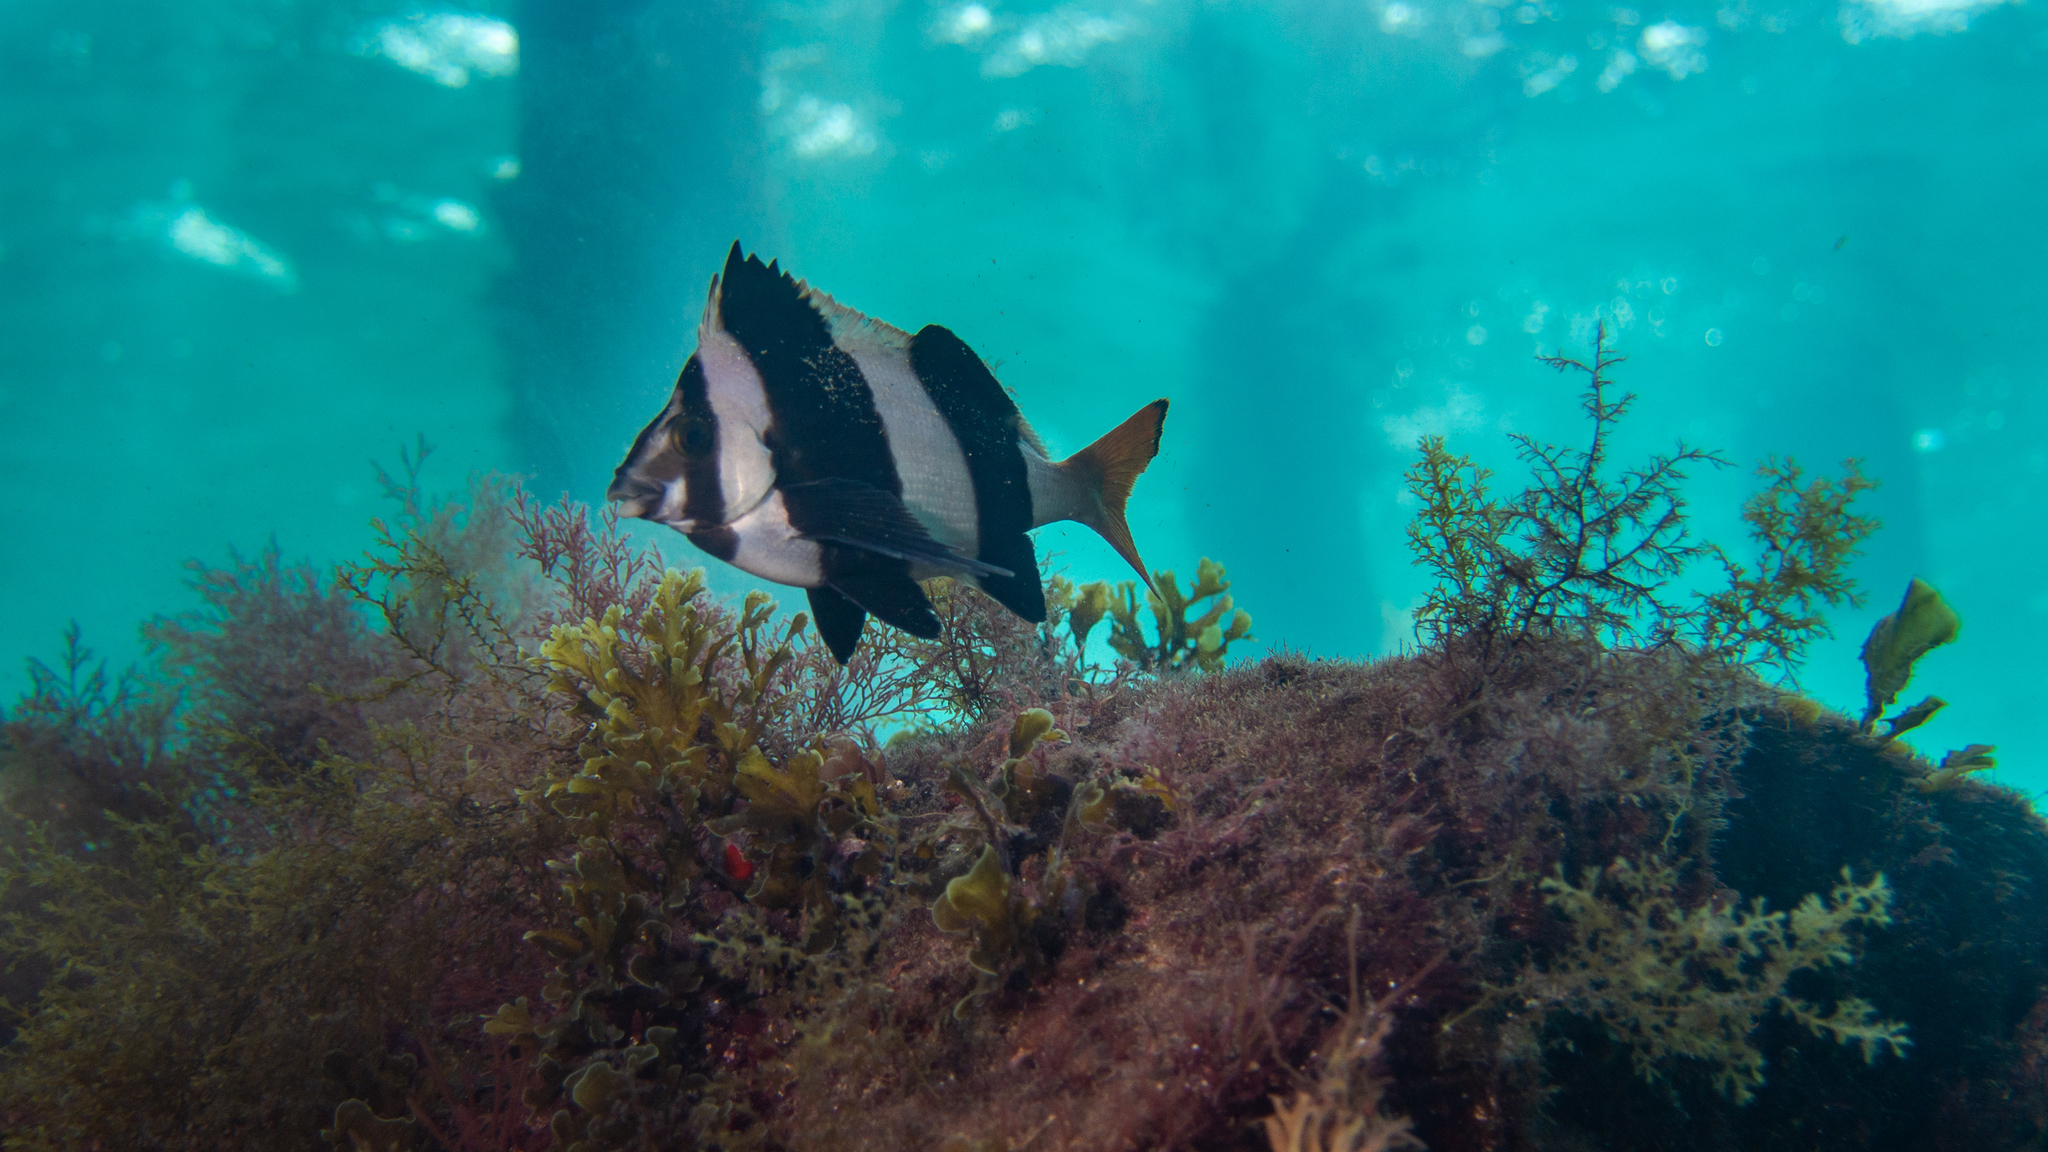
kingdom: Animalia
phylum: Chordata
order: Perciformes
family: Latridae
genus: Pseudogoniistius
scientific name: Pseudogoniistius nigripes
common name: Black-striped morwong
